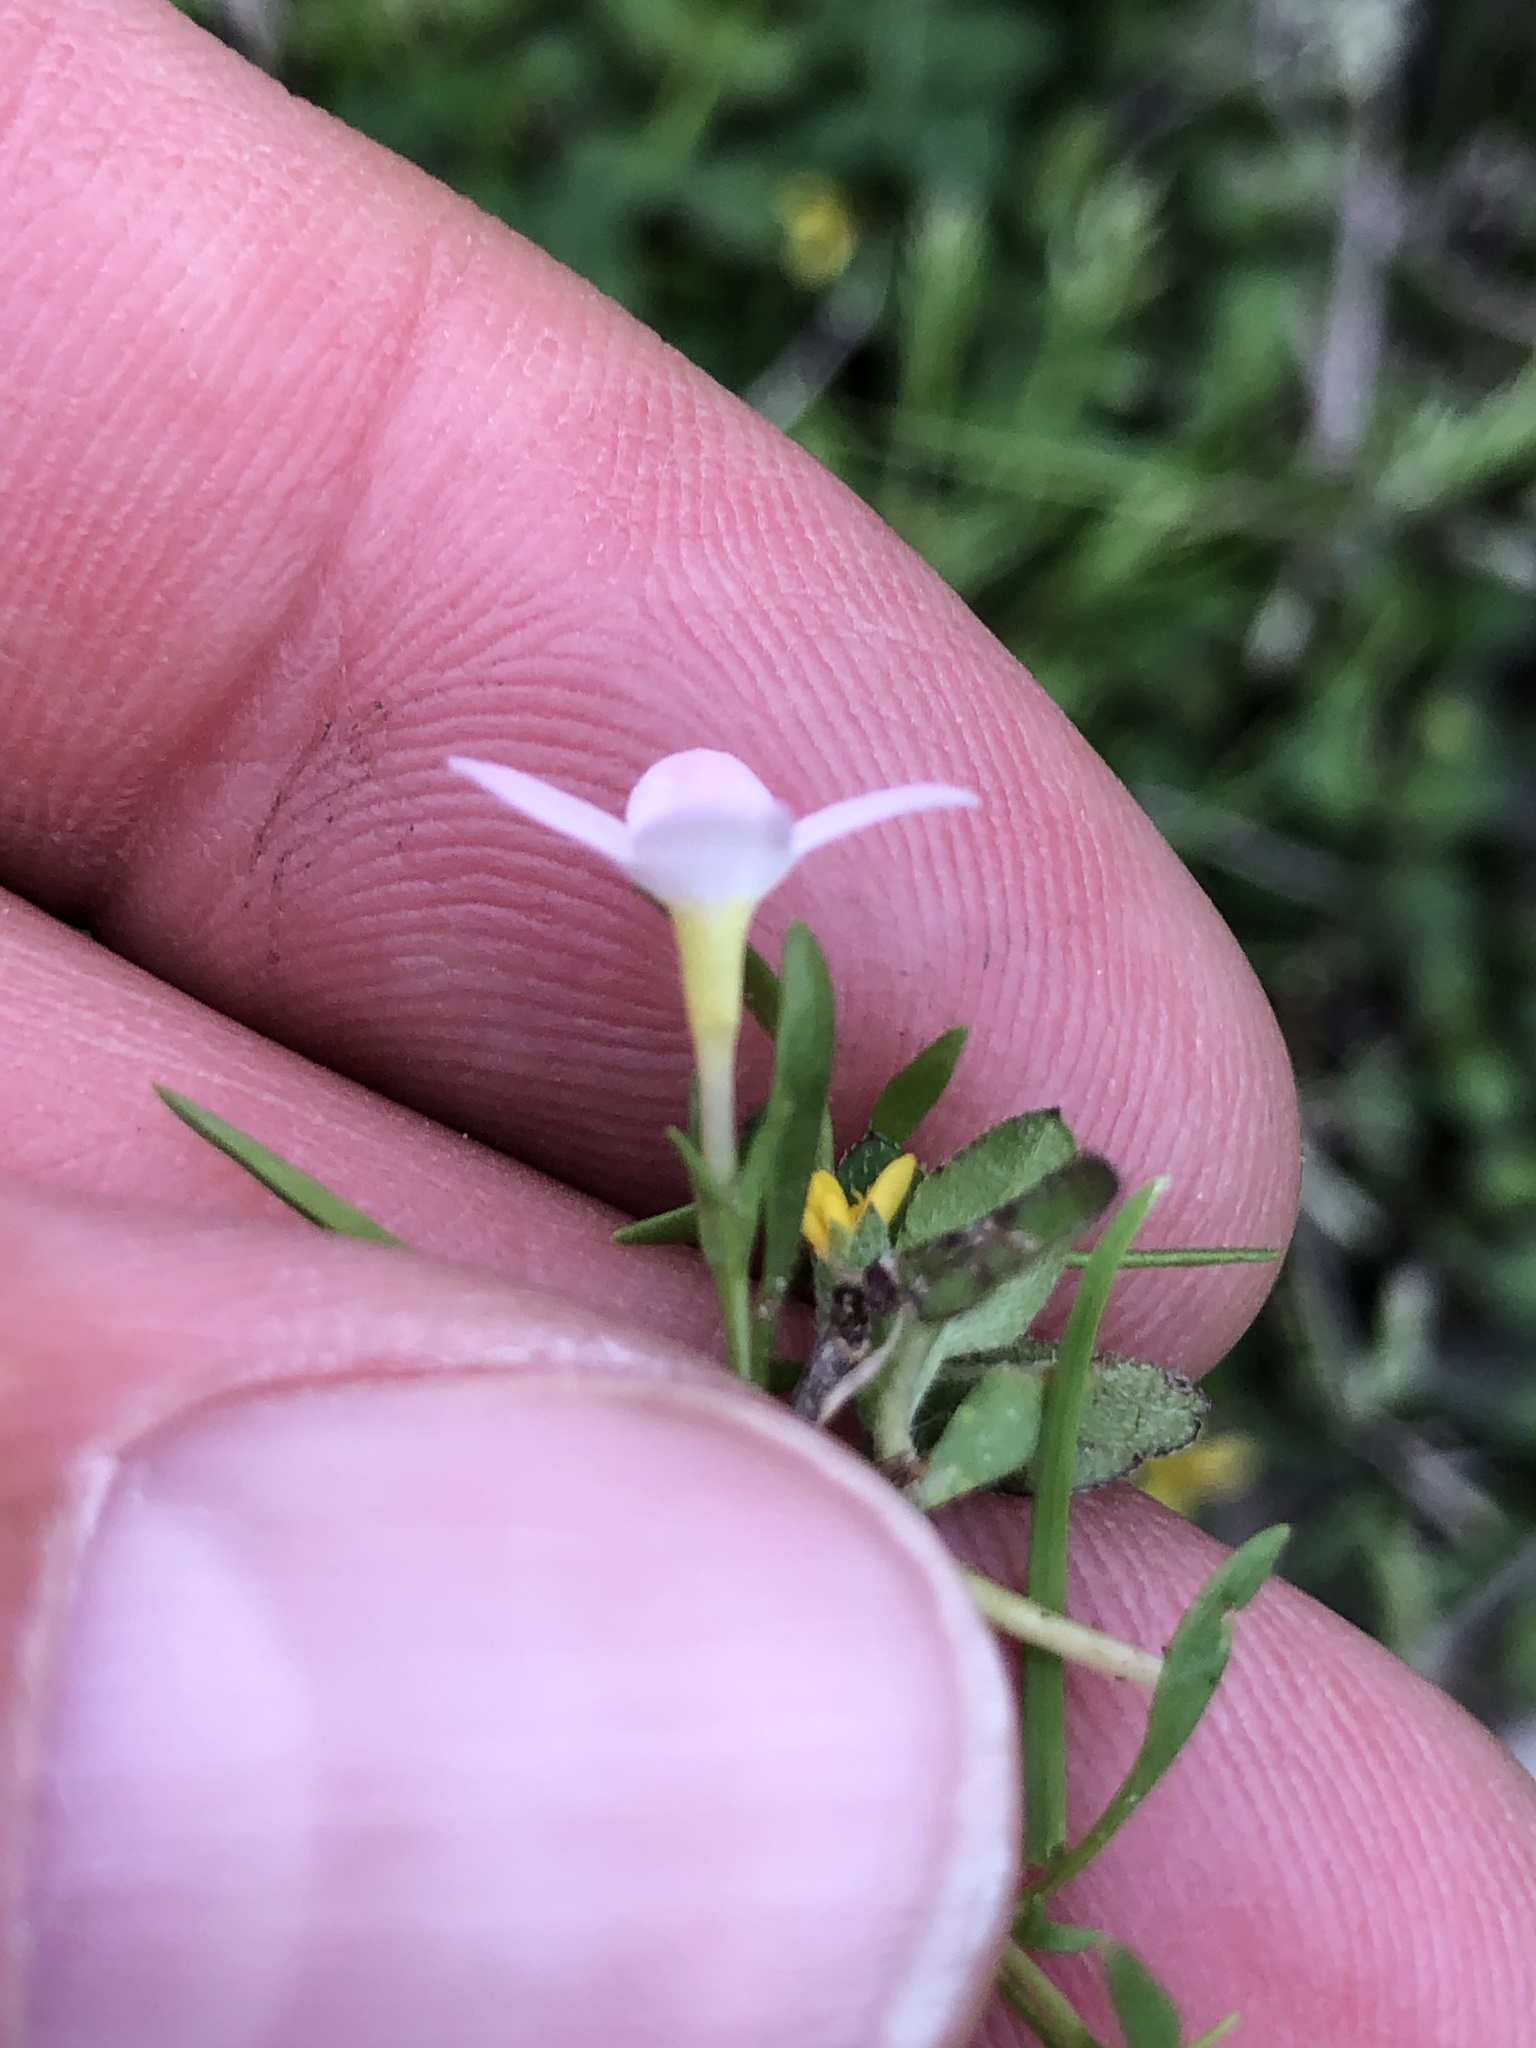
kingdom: Plantae
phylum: Tracheophyta
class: Magnoliopsida
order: Gentianales
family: Rubiaceae
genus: Houstonia
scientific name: Houstonia rosea
